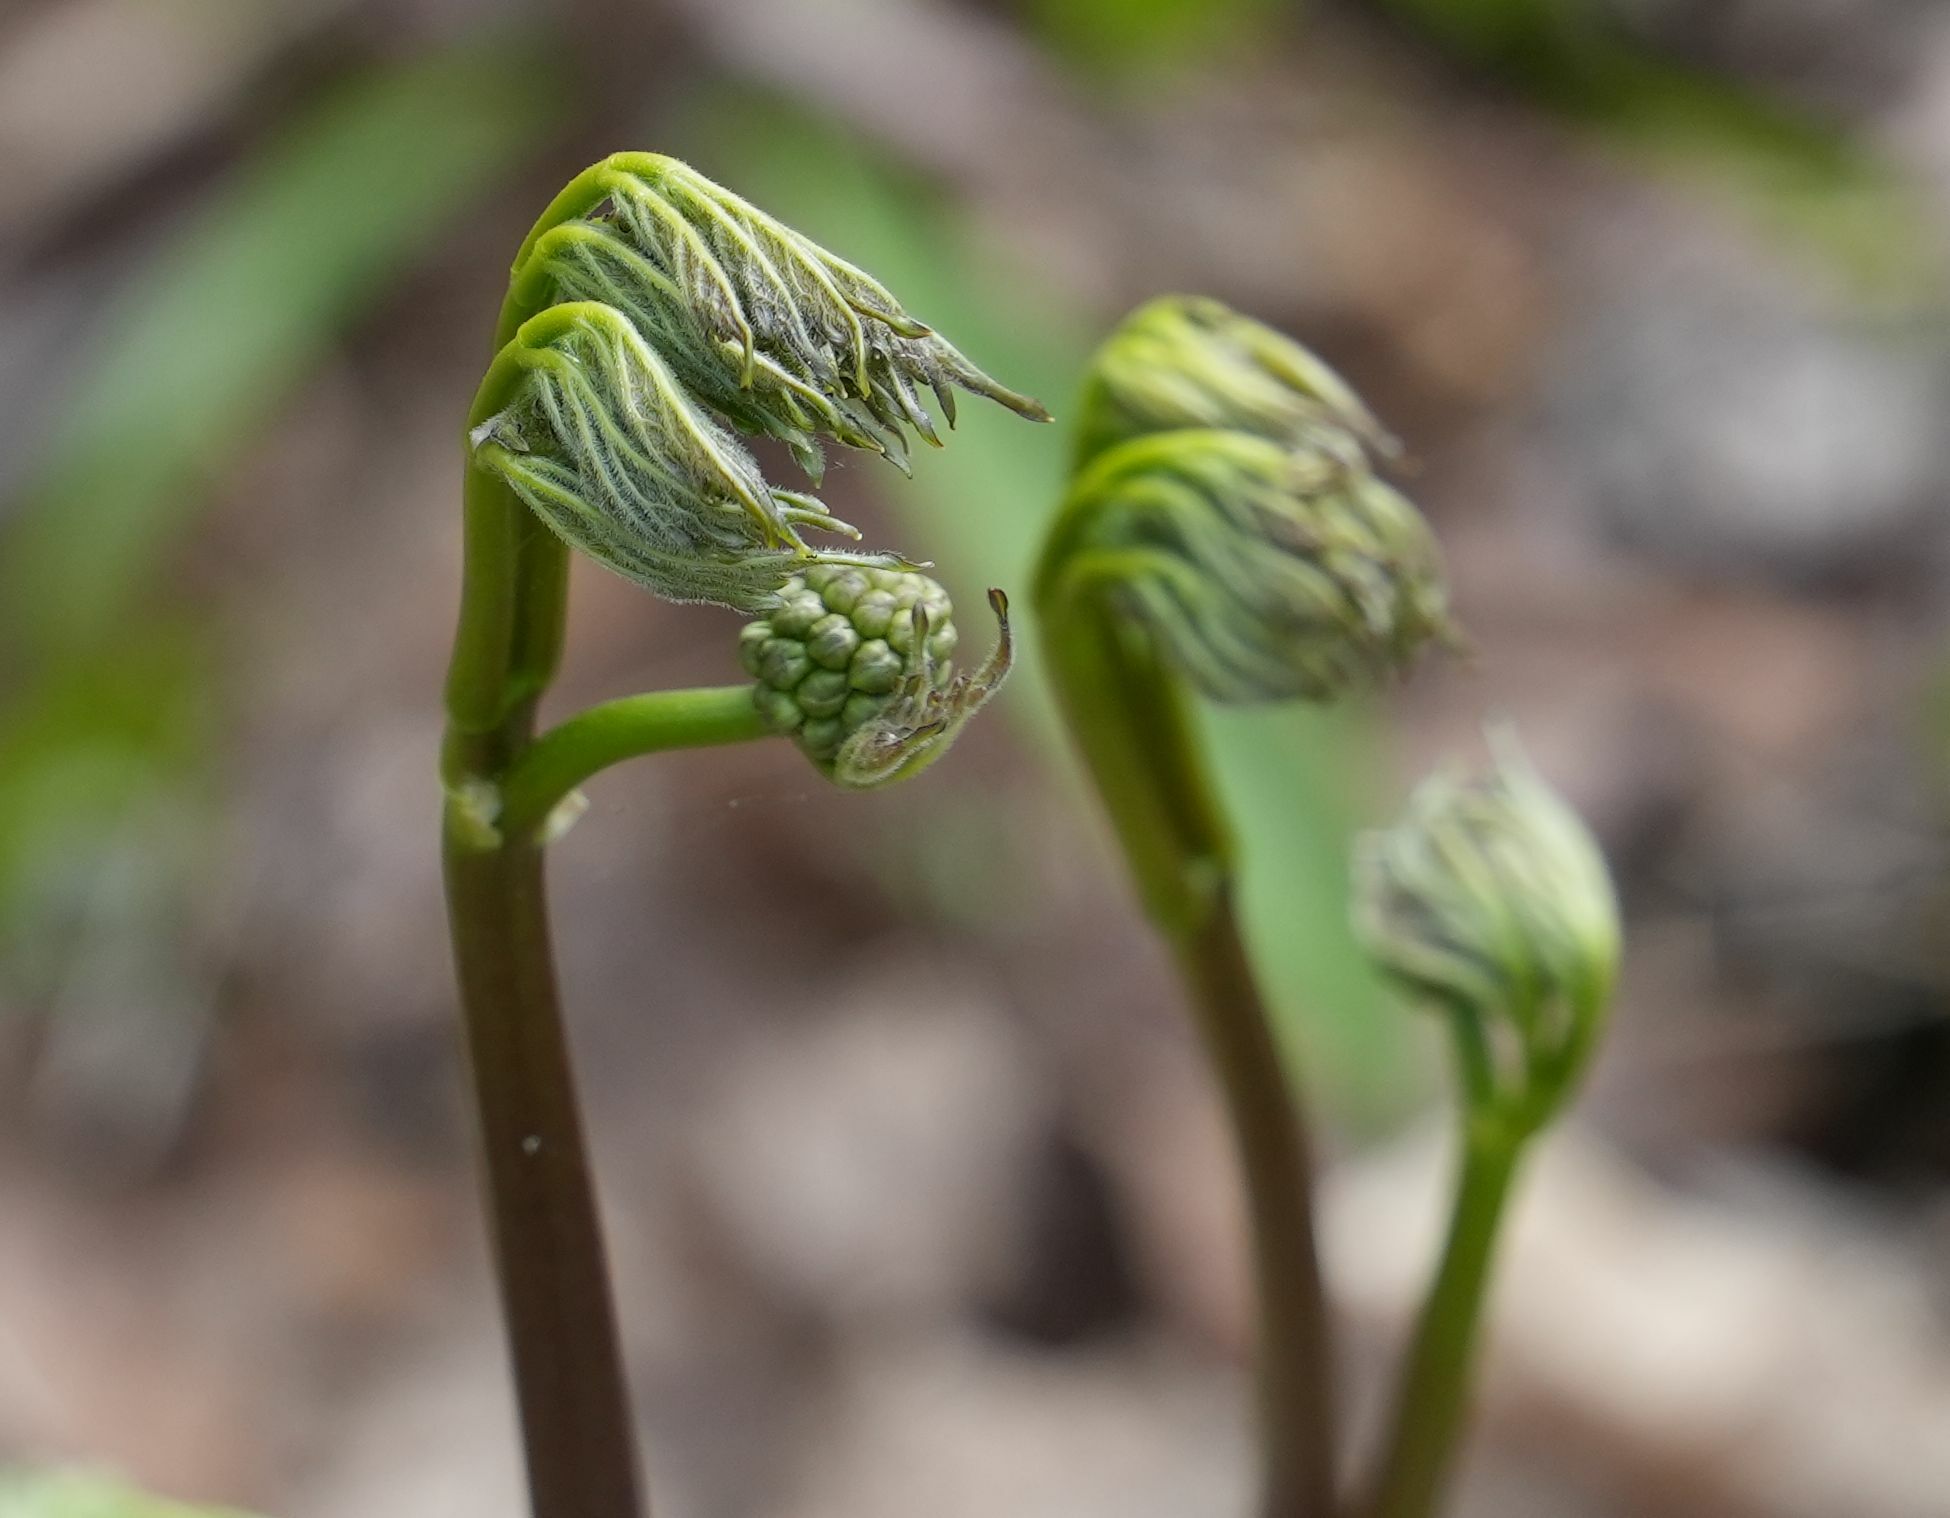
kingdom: Plantae
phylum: Tracheophyta
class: Magnoliopsida
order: Apiales
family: Araliaceae
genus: Aralia
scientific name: Aralia nudicaulis
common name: Wild sarsaparilla
